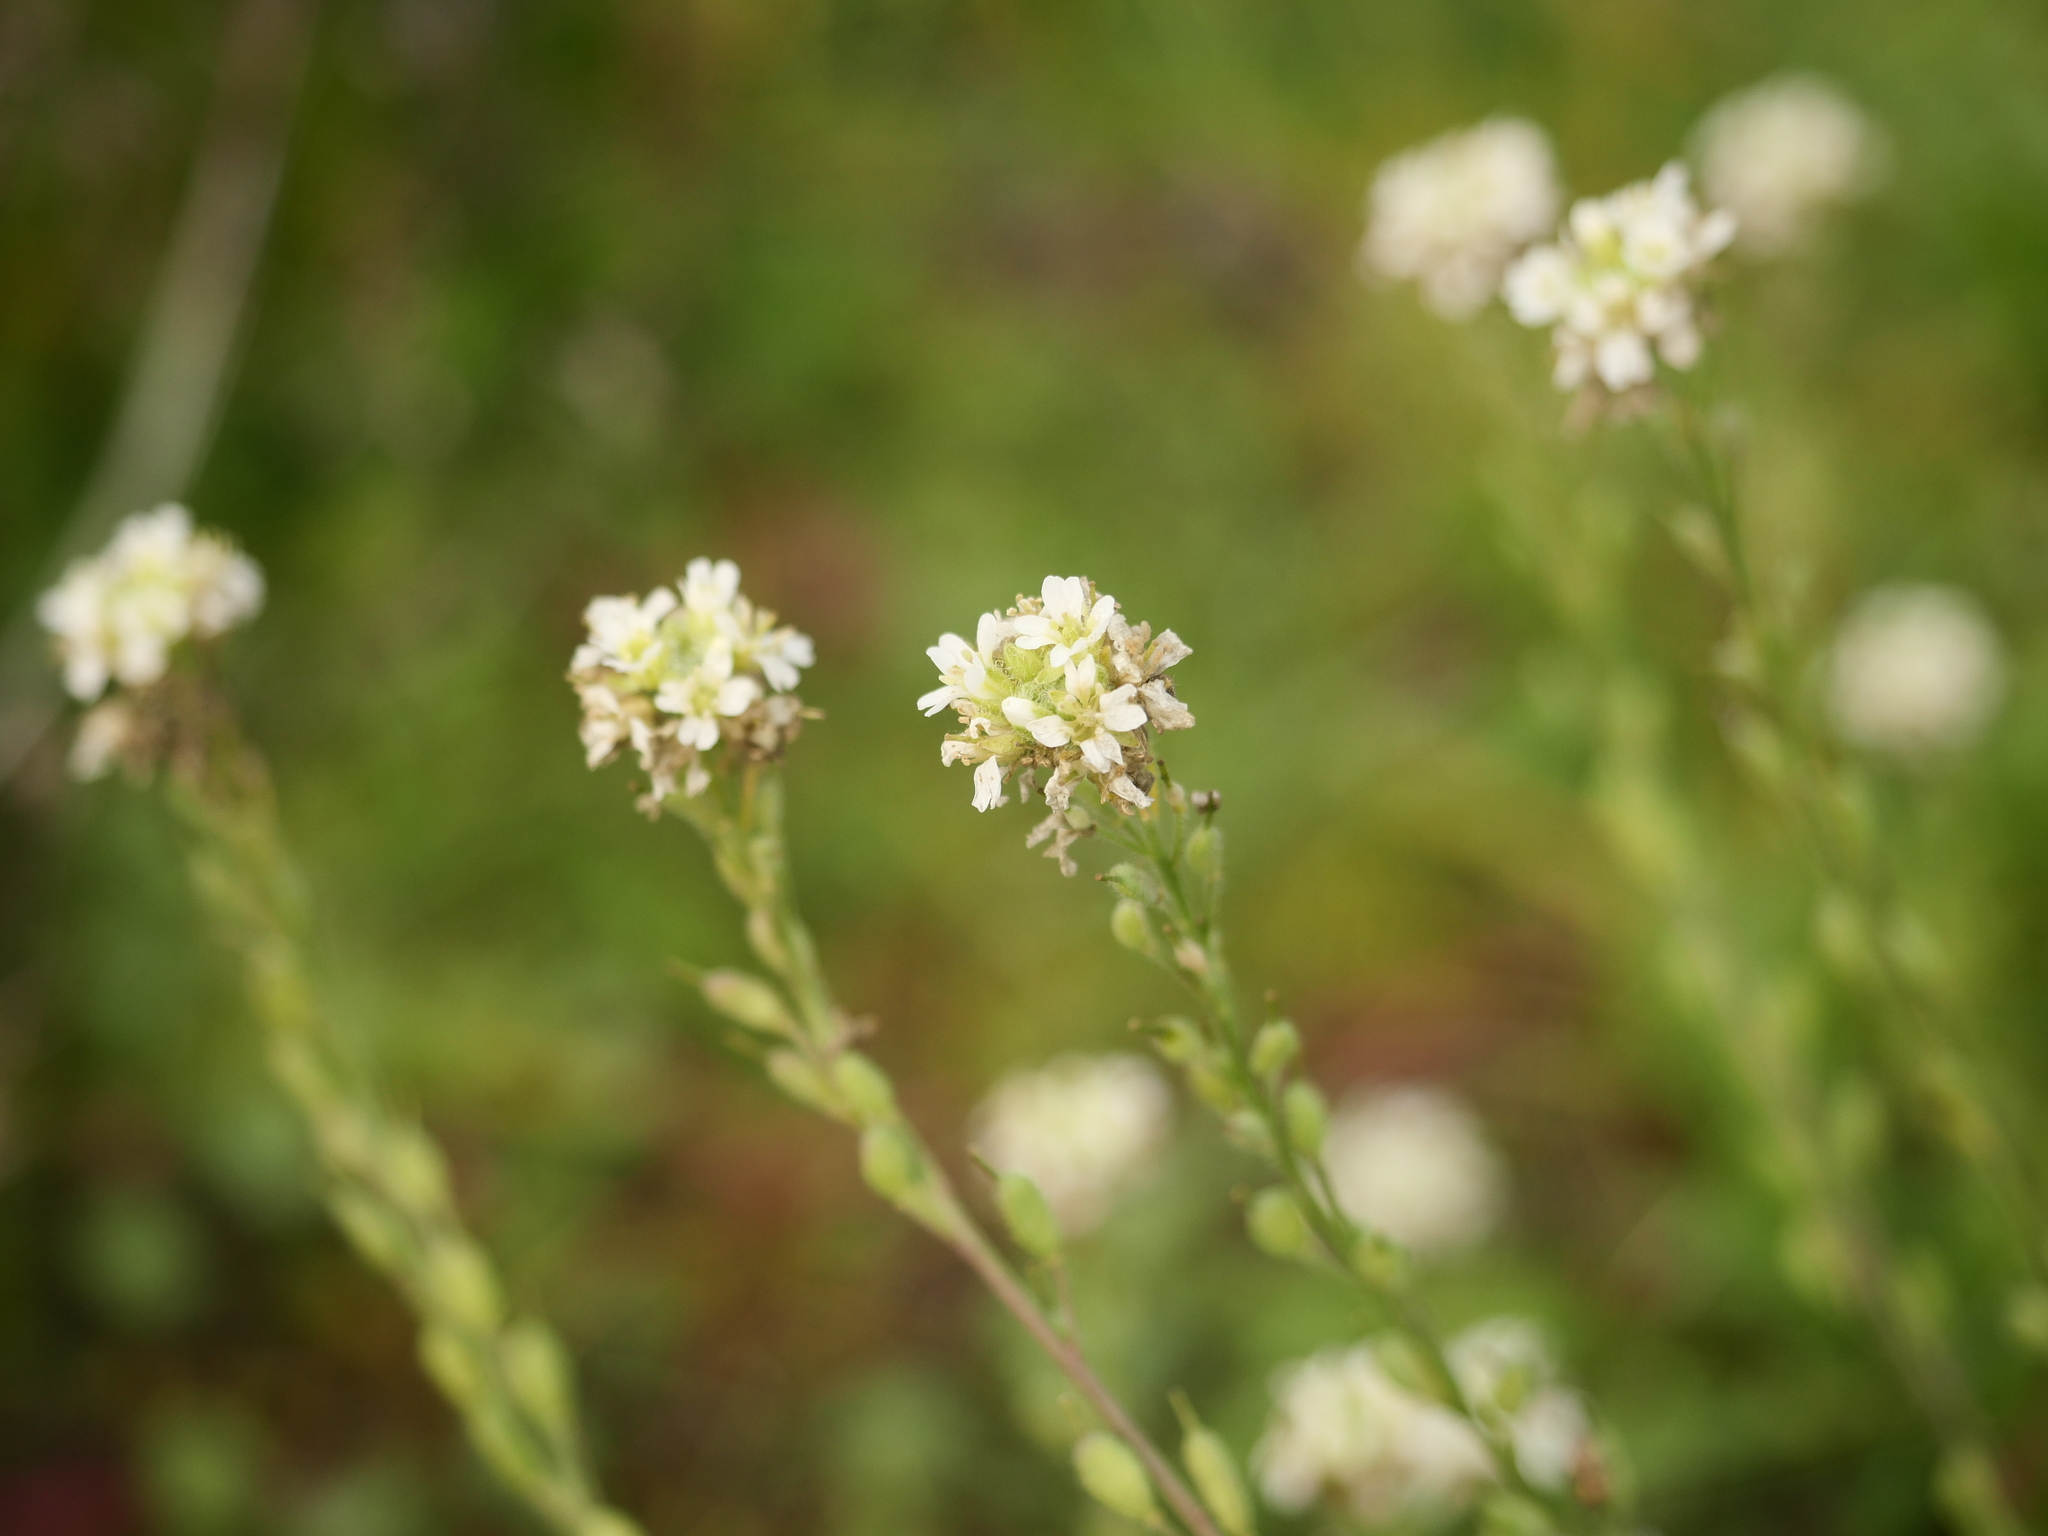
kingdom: Plantae
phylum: Tracheophyta
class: Magnoliopsida
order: Brassicales
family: Brassicaceae
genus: Berteroa
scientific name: Berteroa incana
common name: Hoary alison
